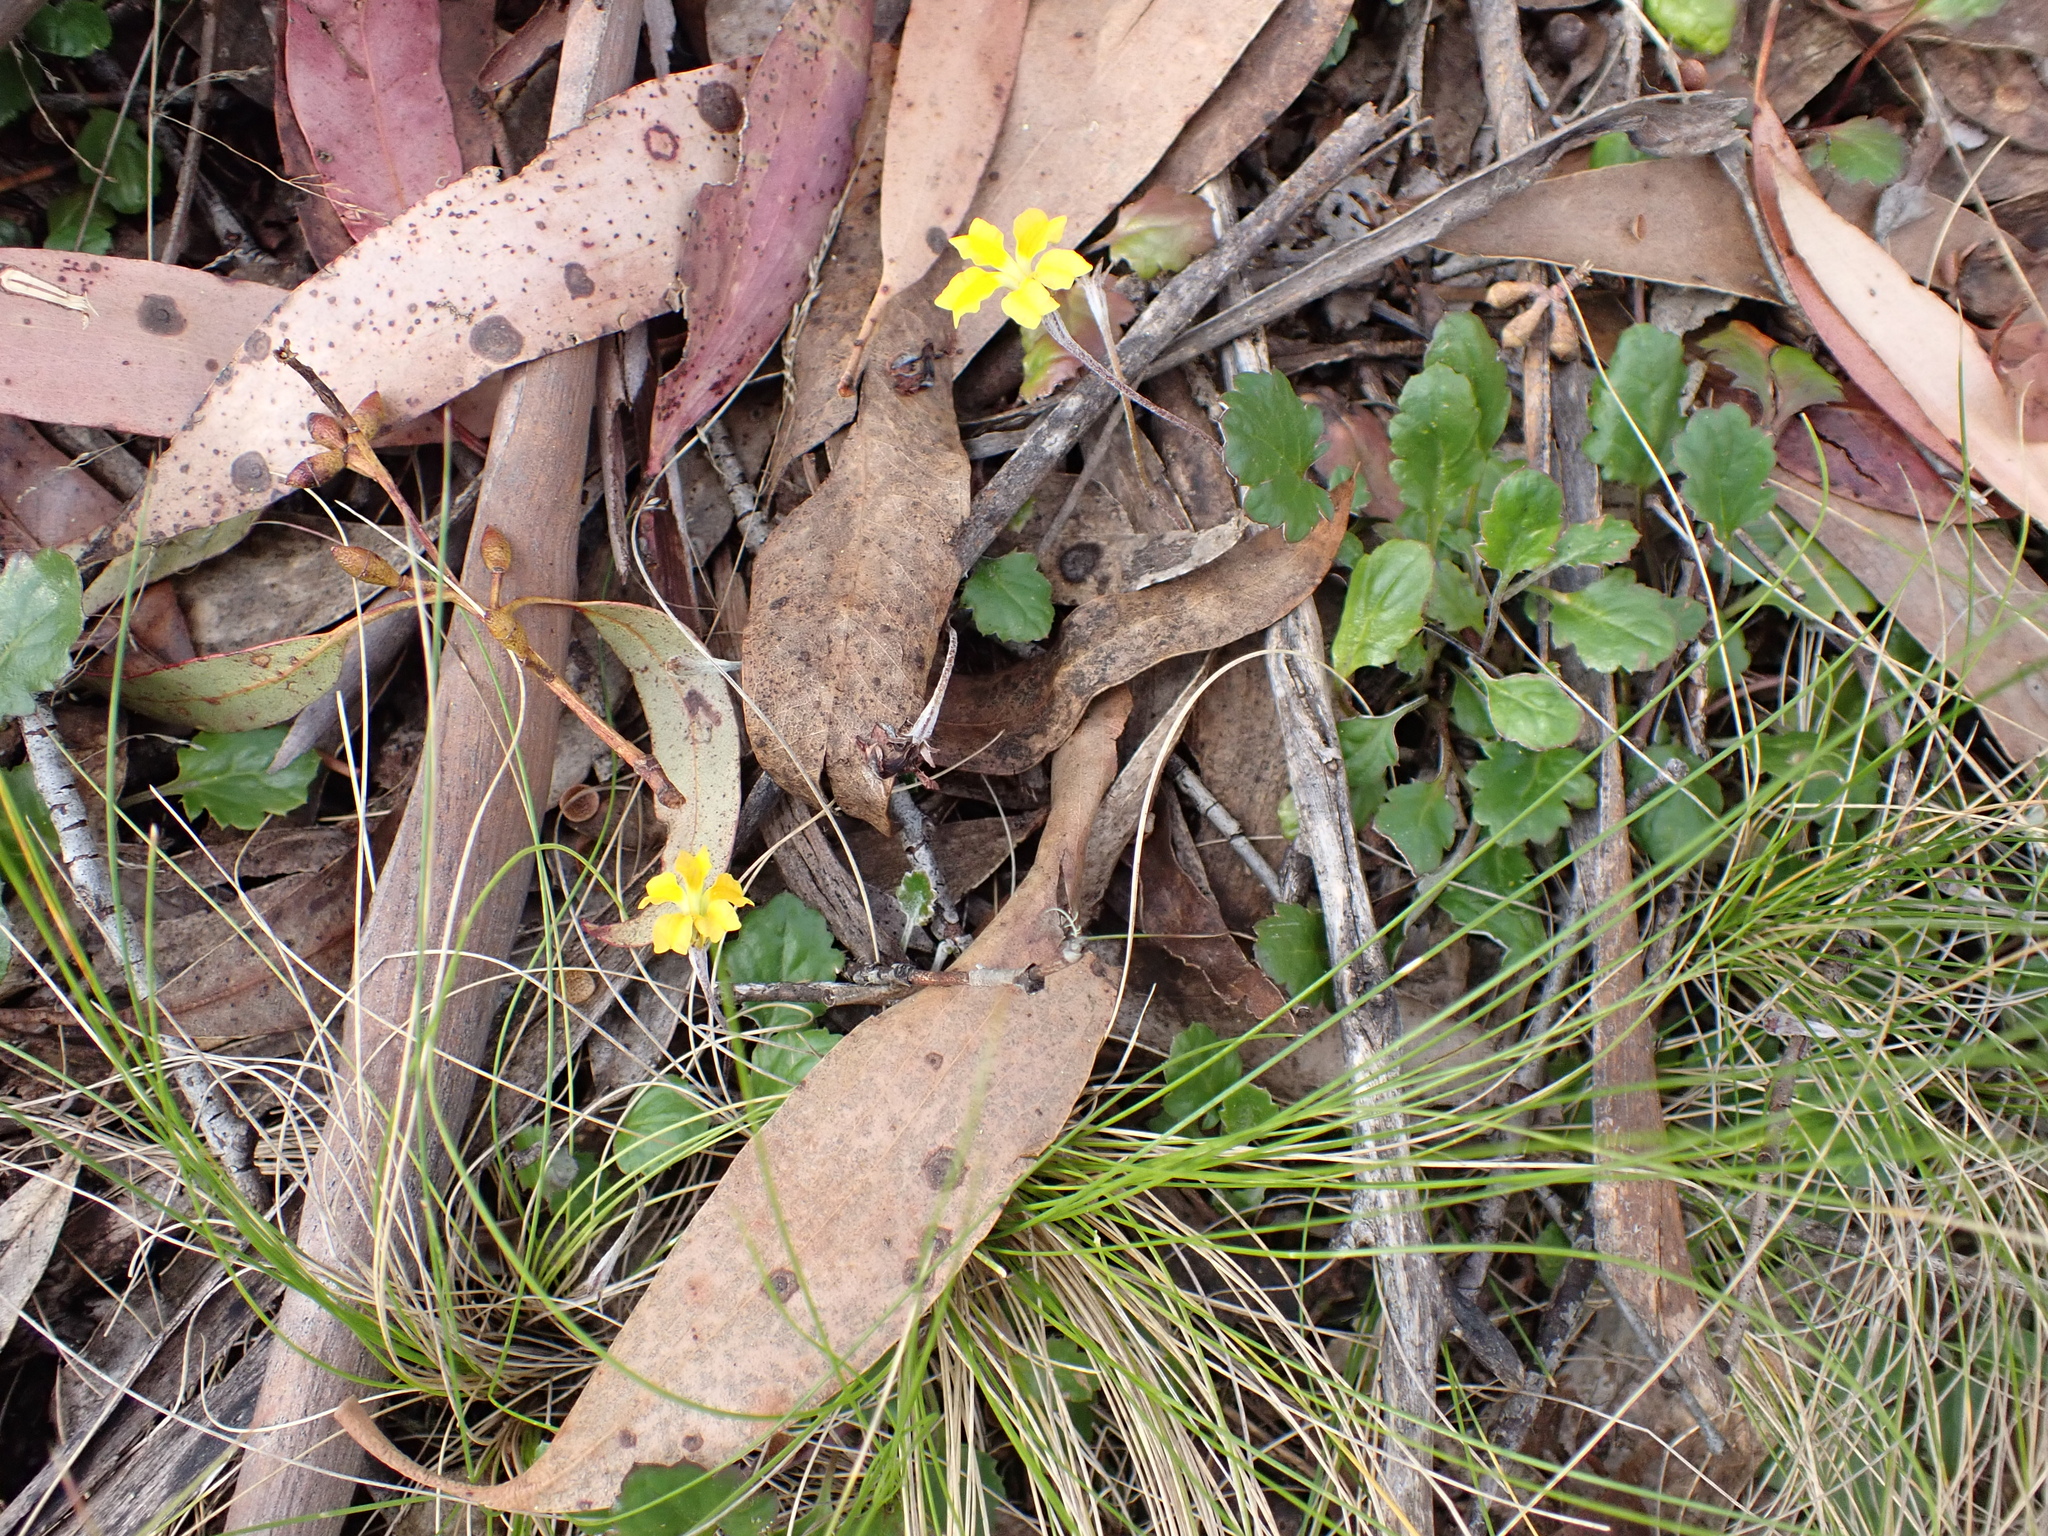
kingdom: Plantae
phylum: Tracheophyta
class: Magnoliopsida
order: Asterales
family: Goodeniaceae
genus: Goodenia
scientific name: Goodenia hederacea
